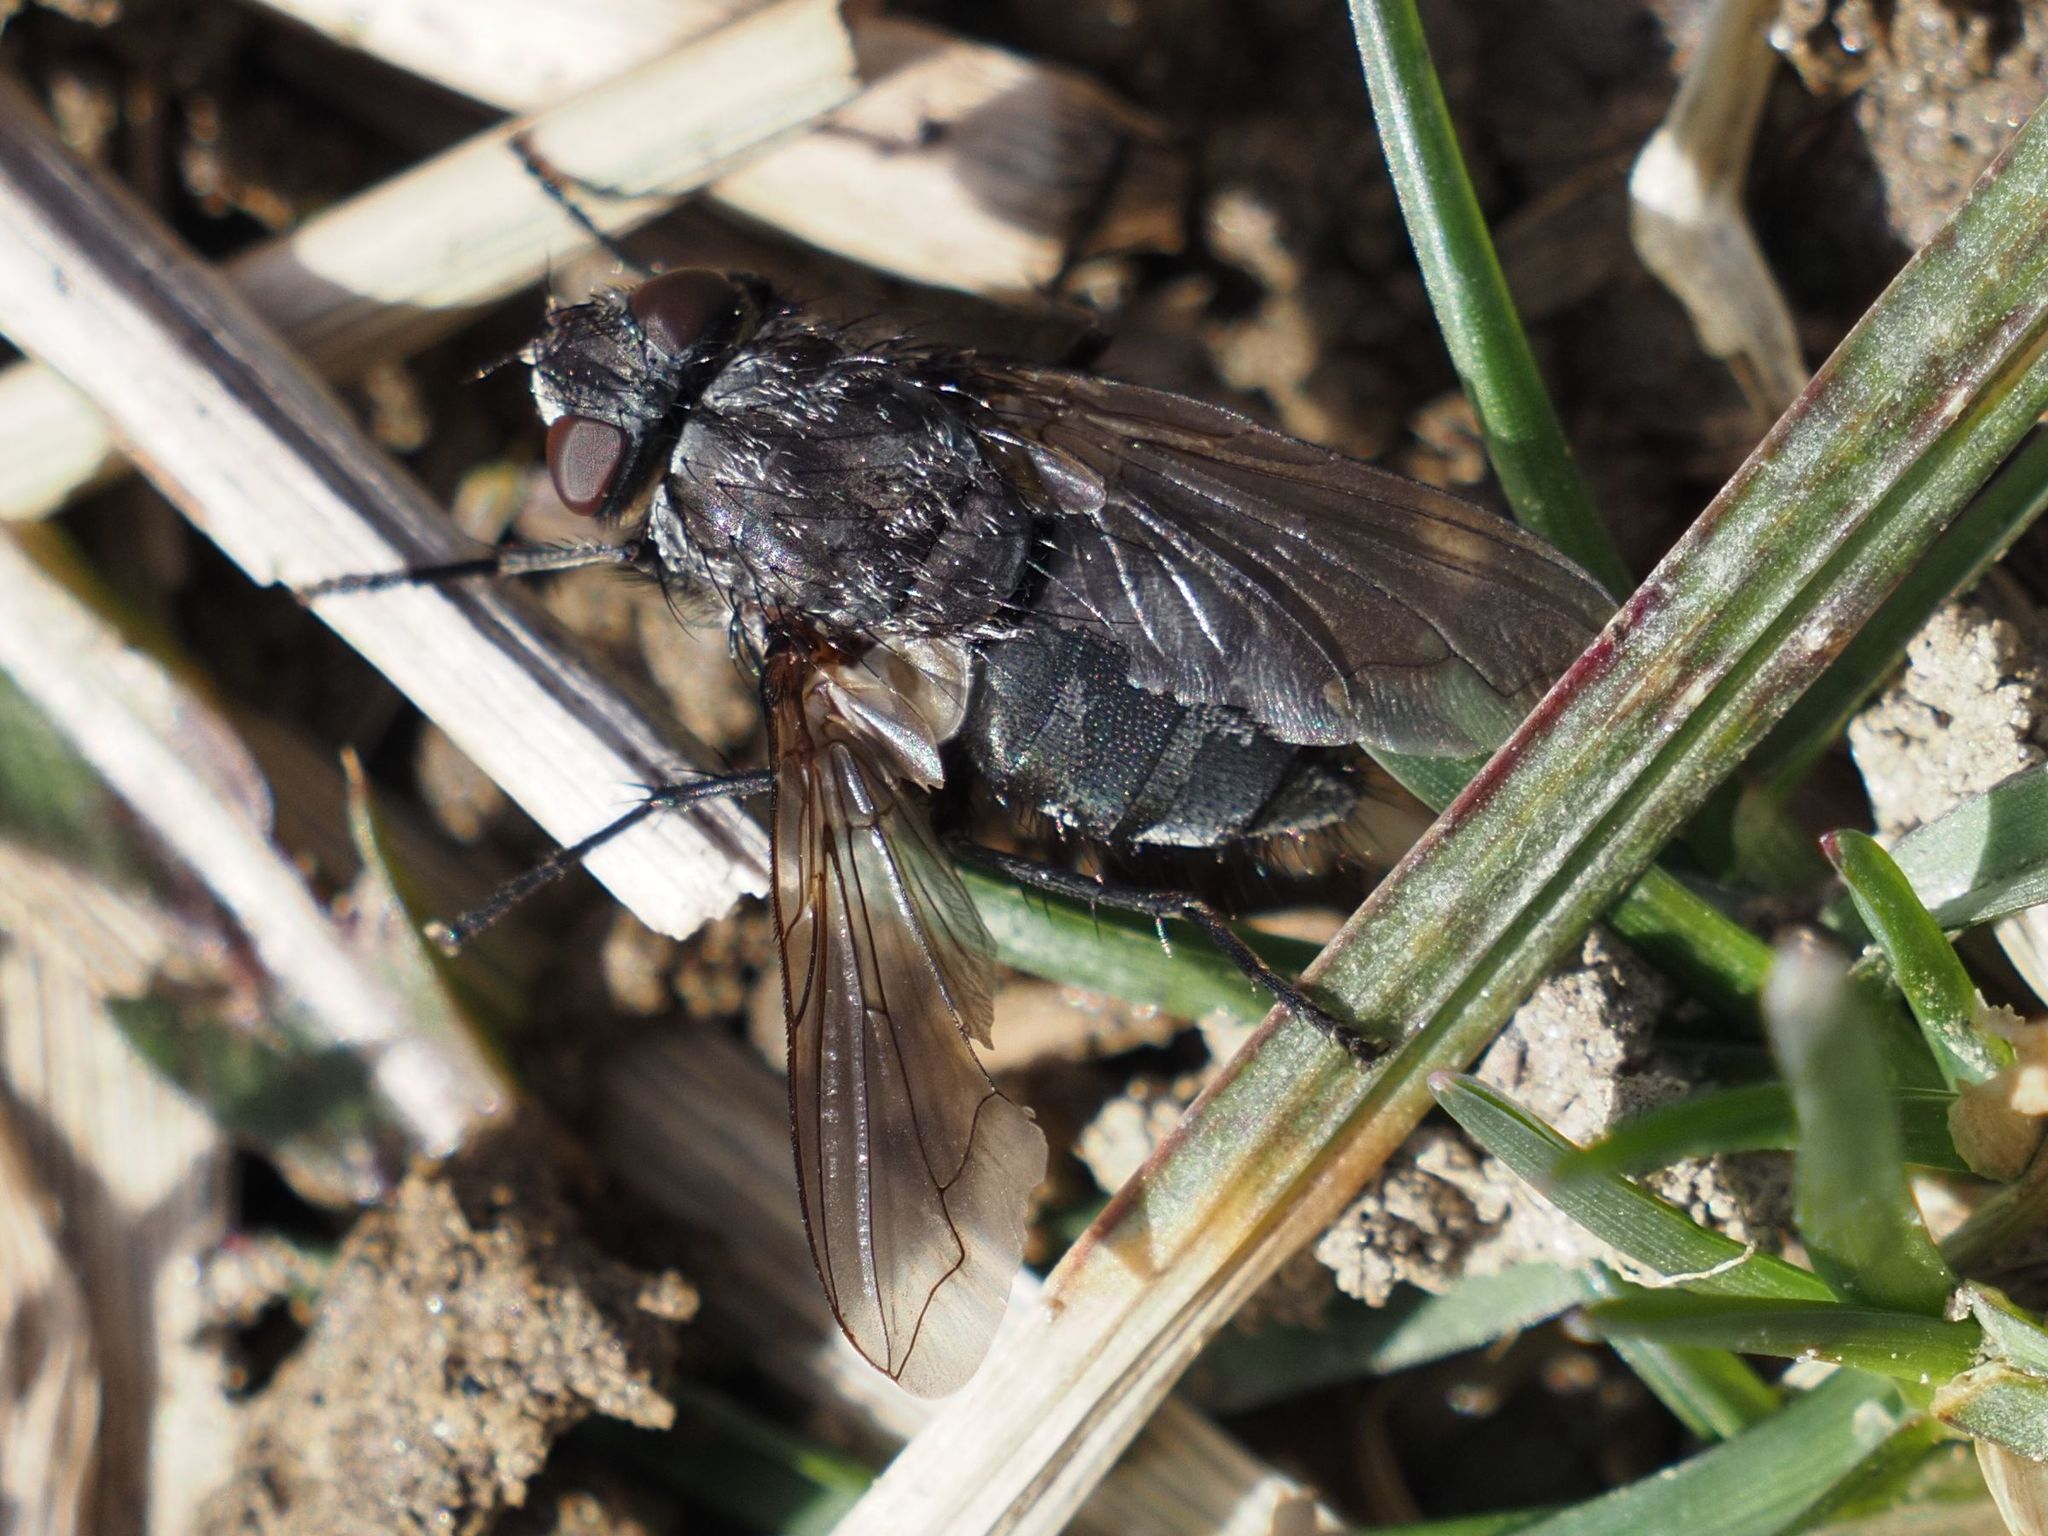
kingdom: Animalia
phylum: Arthropoda
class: Insecta
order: Diptera
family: Polleniidae
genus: Pollenia
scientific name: Pollenia vagabunda
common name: Vagabund cluster fly
